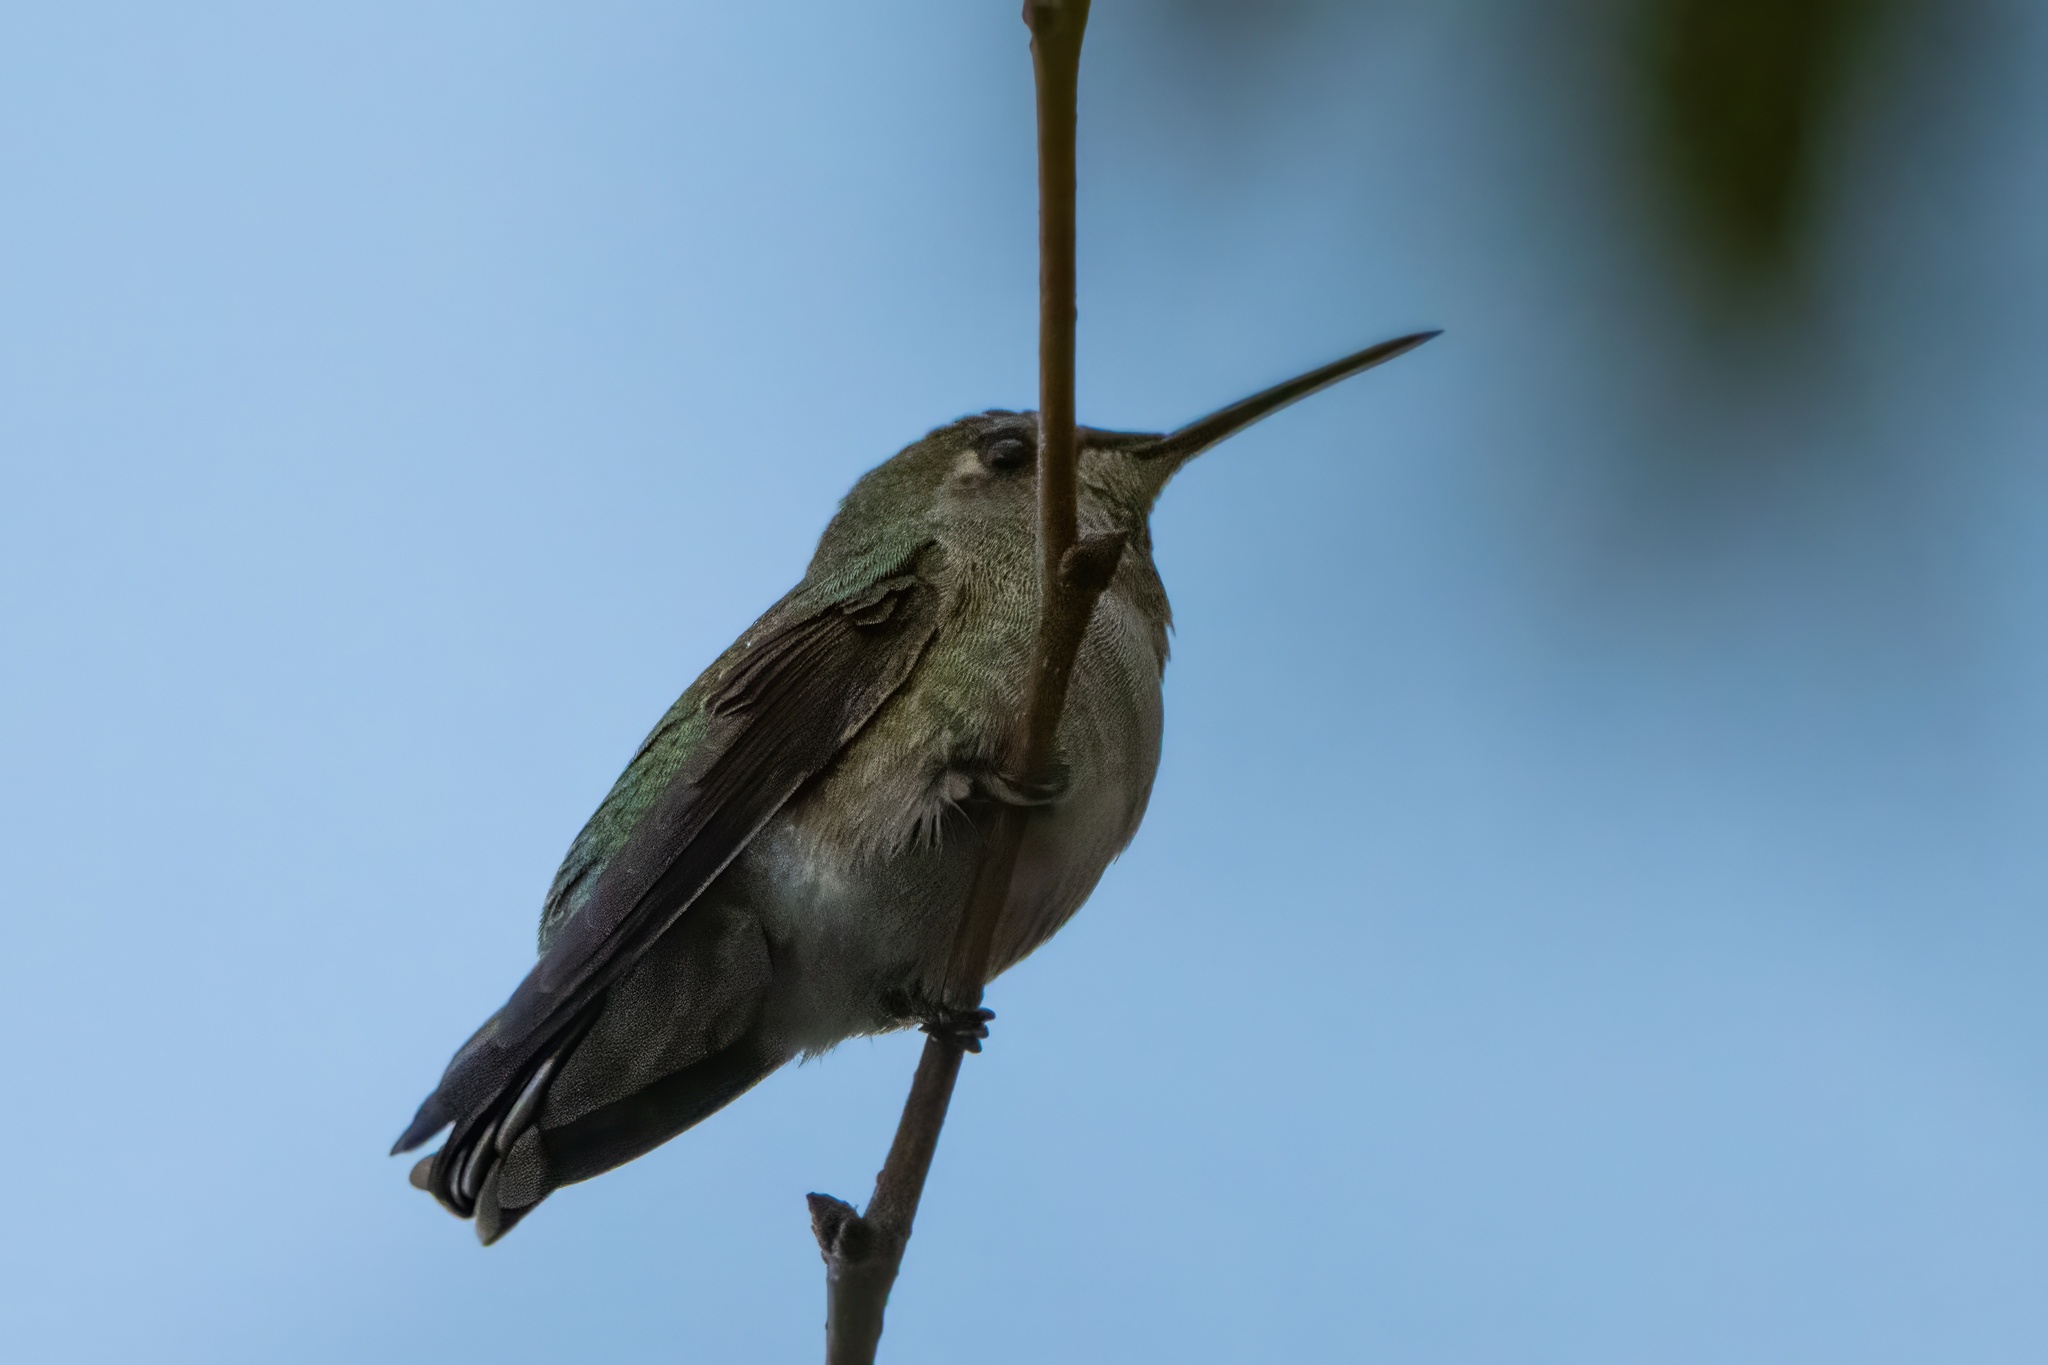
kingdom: Animalia
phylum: Chordata
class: Aves
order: Apodiformes
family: Trochilidae
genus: Calypte
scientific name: Calypte anna
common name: Anna's hummingbird
